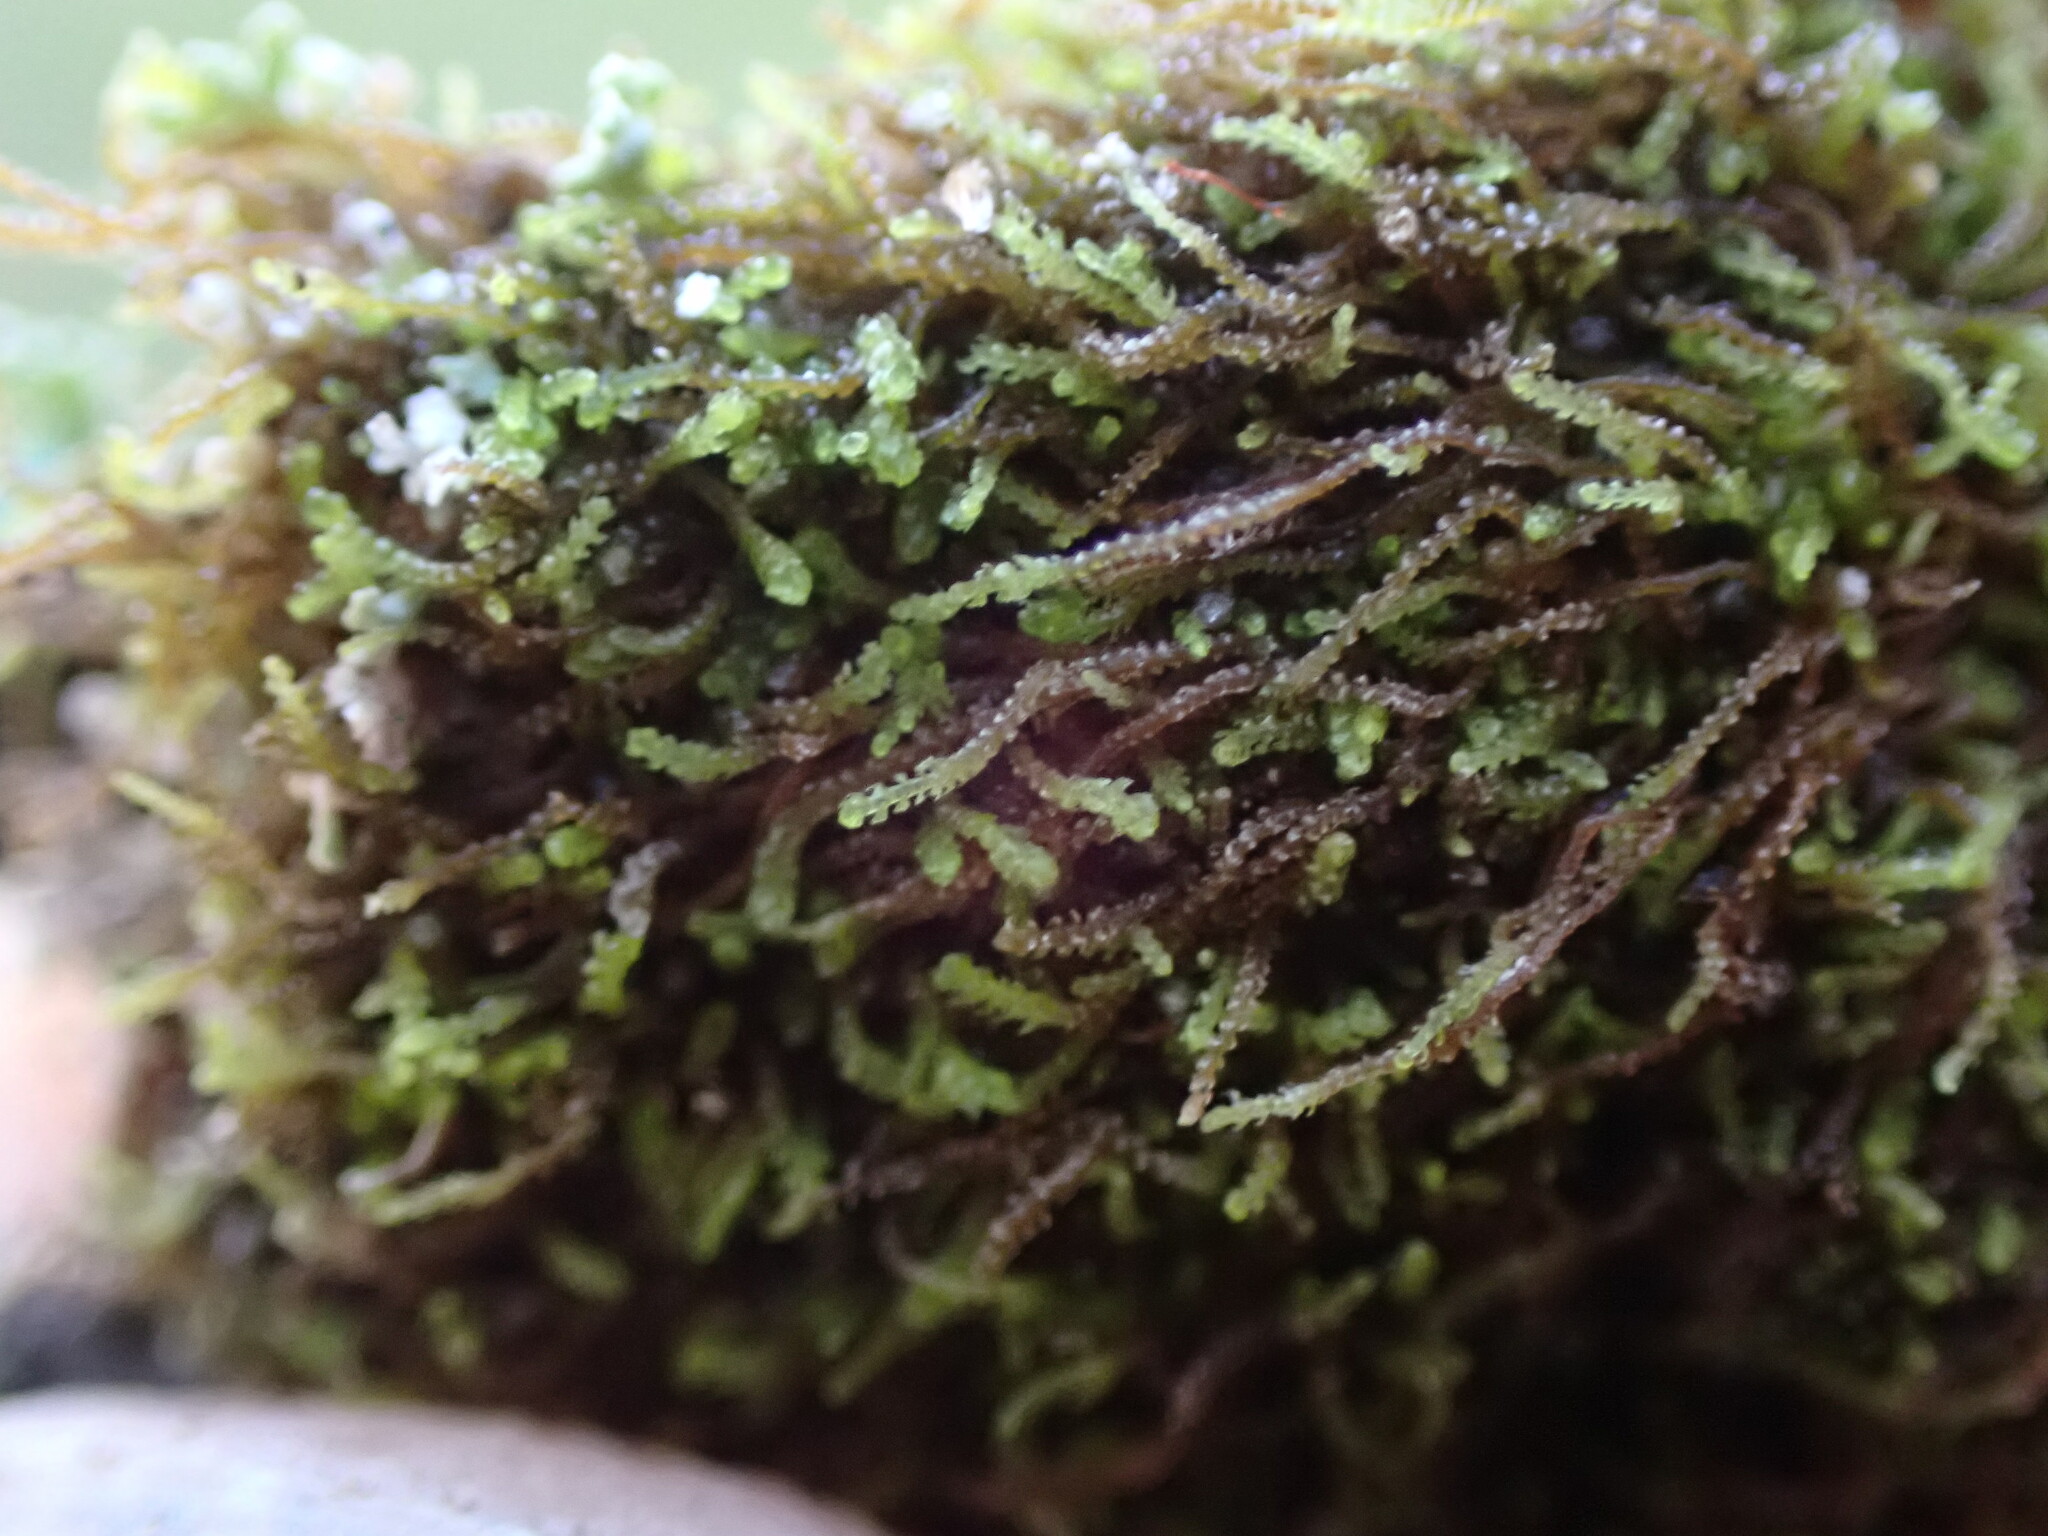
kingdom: Plantae
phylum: Marchantiophyta
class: Jungermanniopsida
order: Jungermanniales
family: Cephaloziellaceae
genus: Cephaloziella
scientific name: Cephaloziella divaricata
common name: Spreading threadwort
